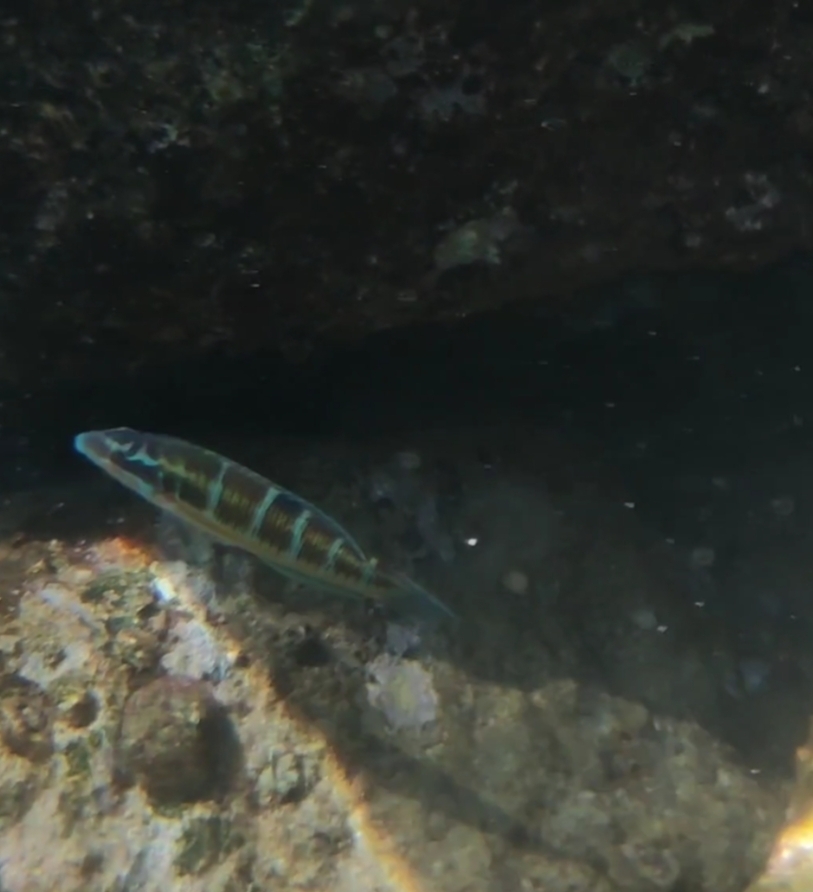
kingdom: Animalia
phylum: Chordata
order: Perciformes
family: Labridae
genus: Thalassoma
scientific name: Thalassoma pavo
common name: Ornate wrasse
